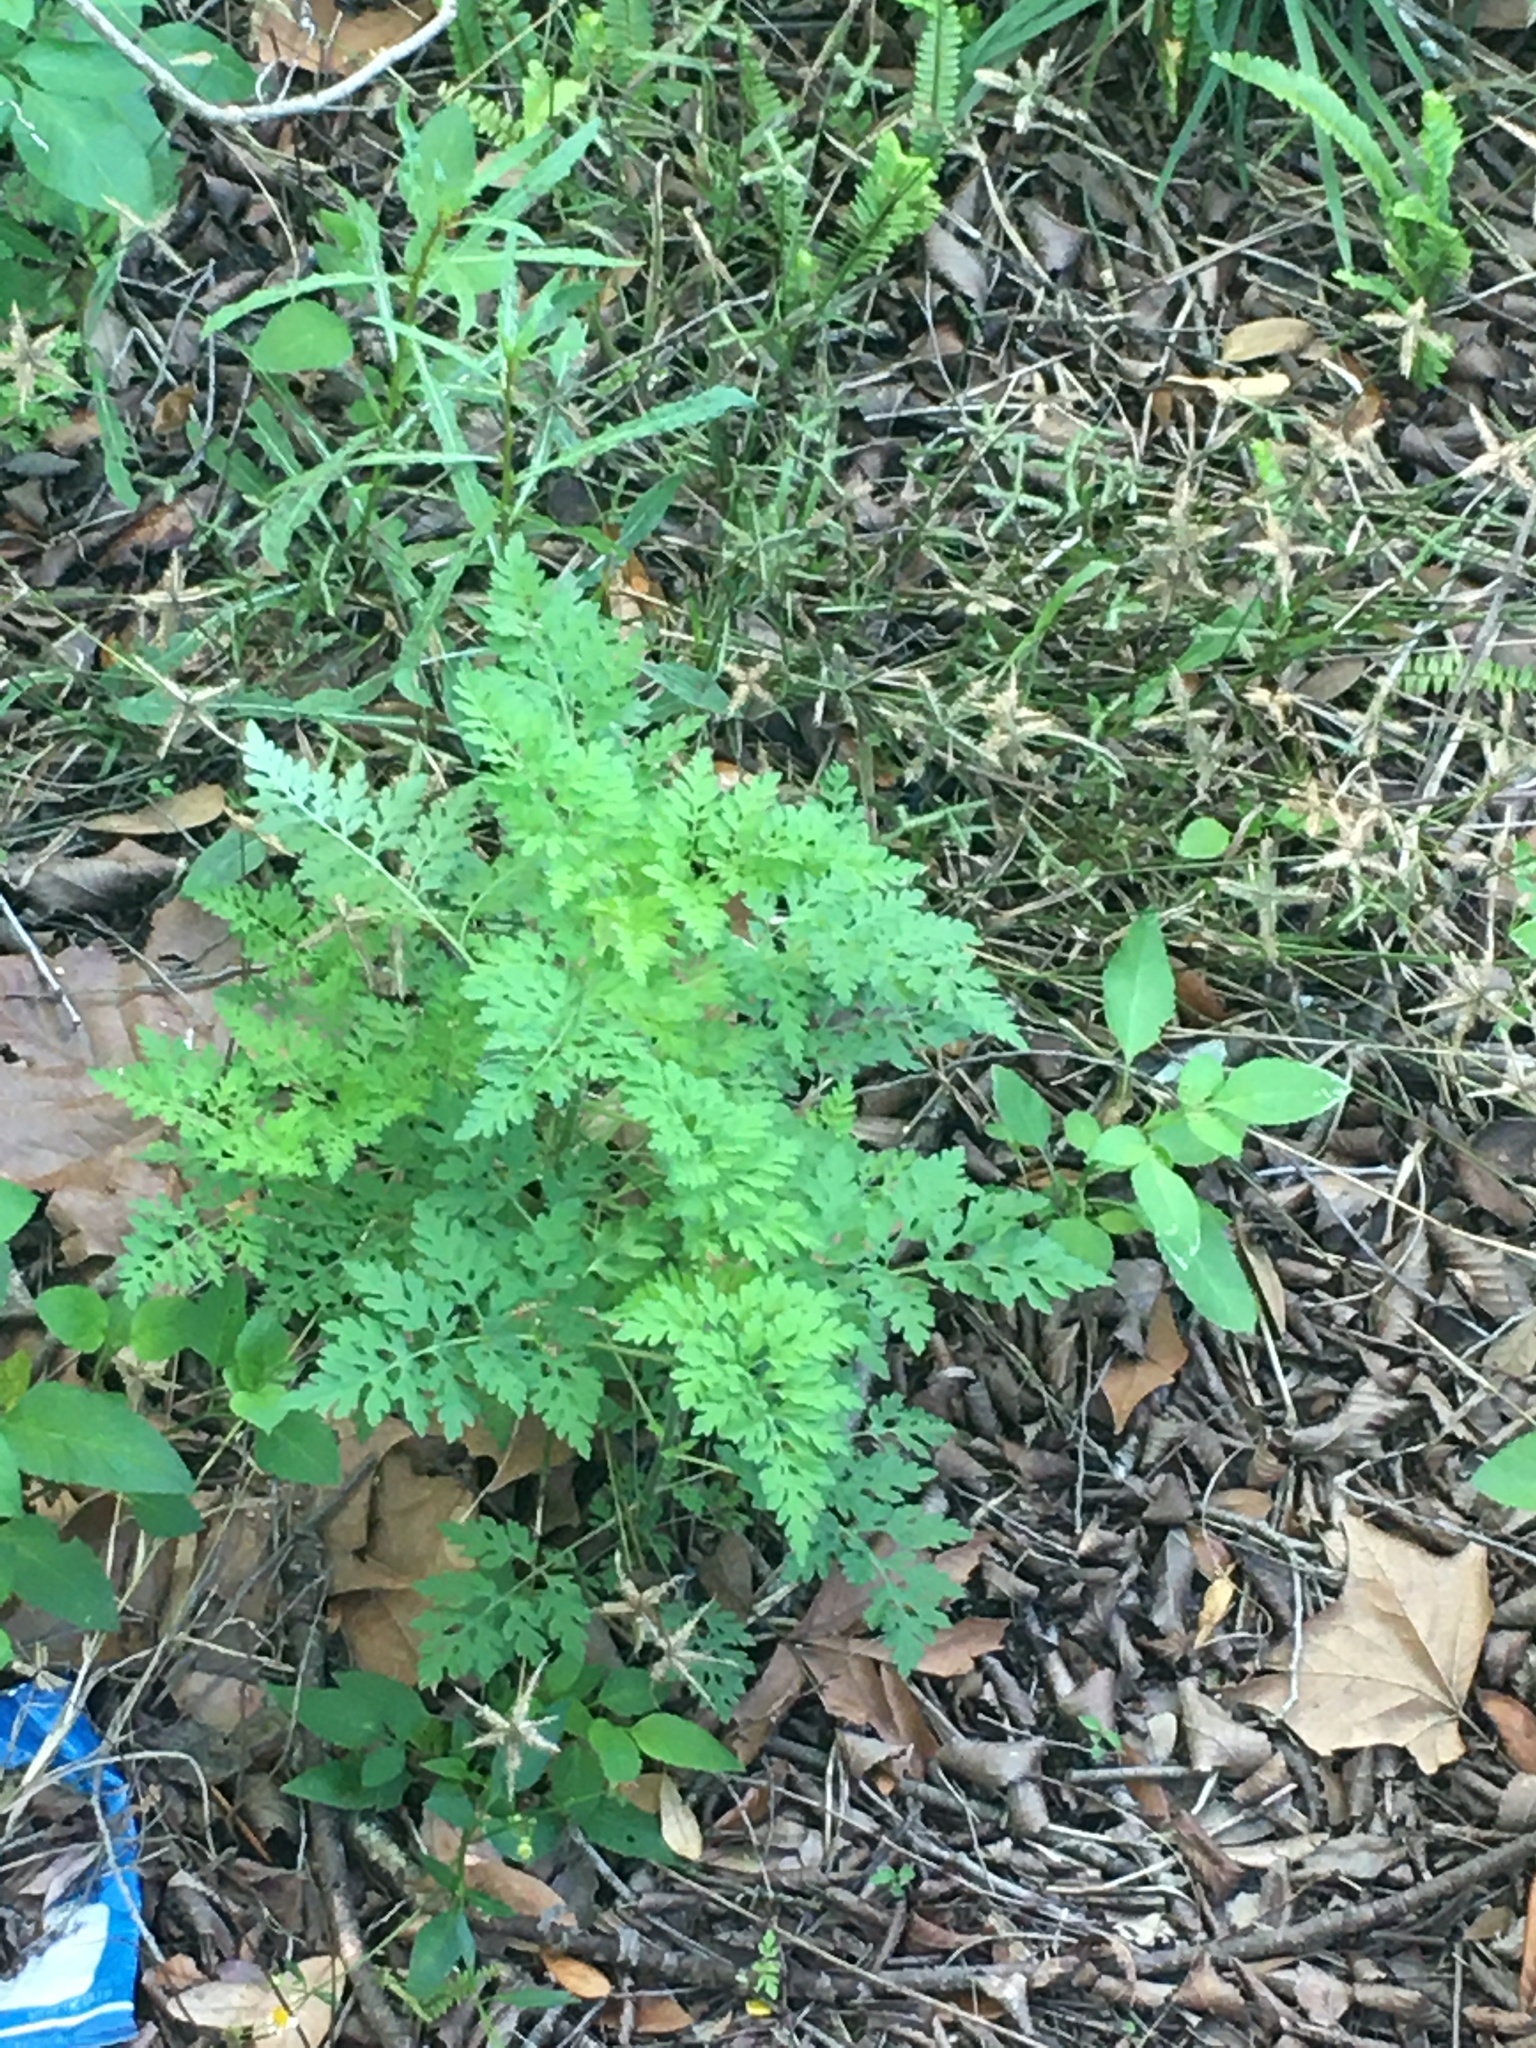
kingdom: Plantae
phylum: Tracheophyta
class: Magnoliopsida
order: Asterales
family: Asteraceae
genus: Ambrosia
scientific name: Ambrosia artemisiifolia
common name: Annual ragweed
